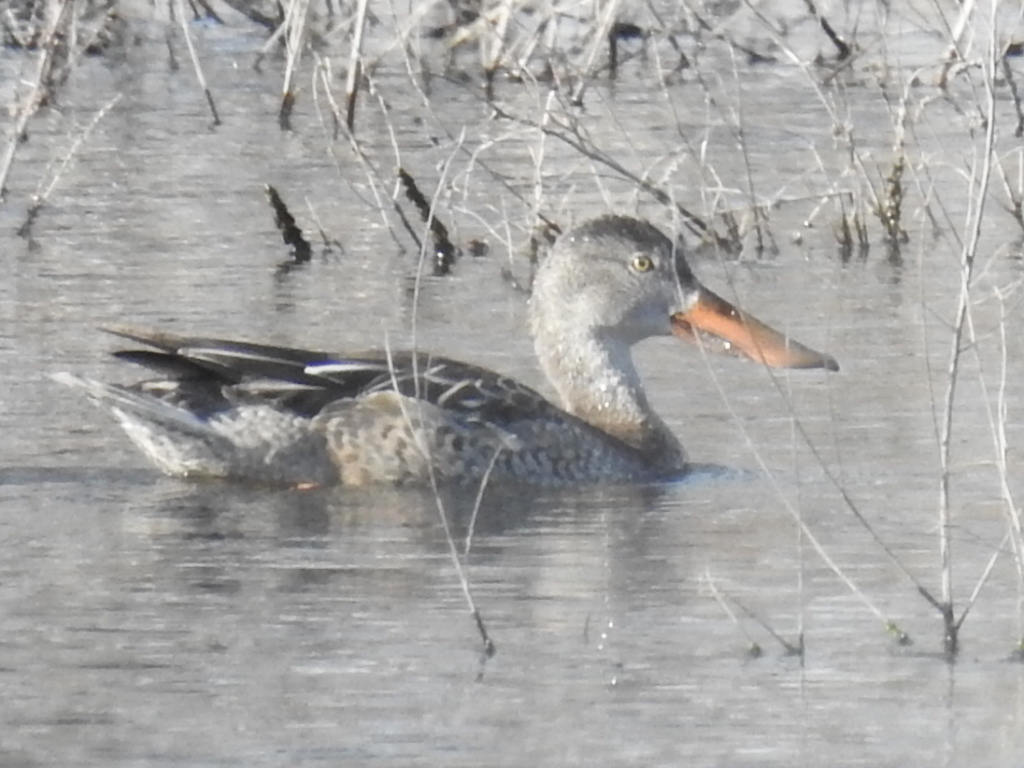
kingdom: Animalia
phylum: Chordata
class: Aves
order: Anseriformes
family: Anatidae
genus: Spatula
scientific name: Spatula clypeata
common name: Northern shoveler
